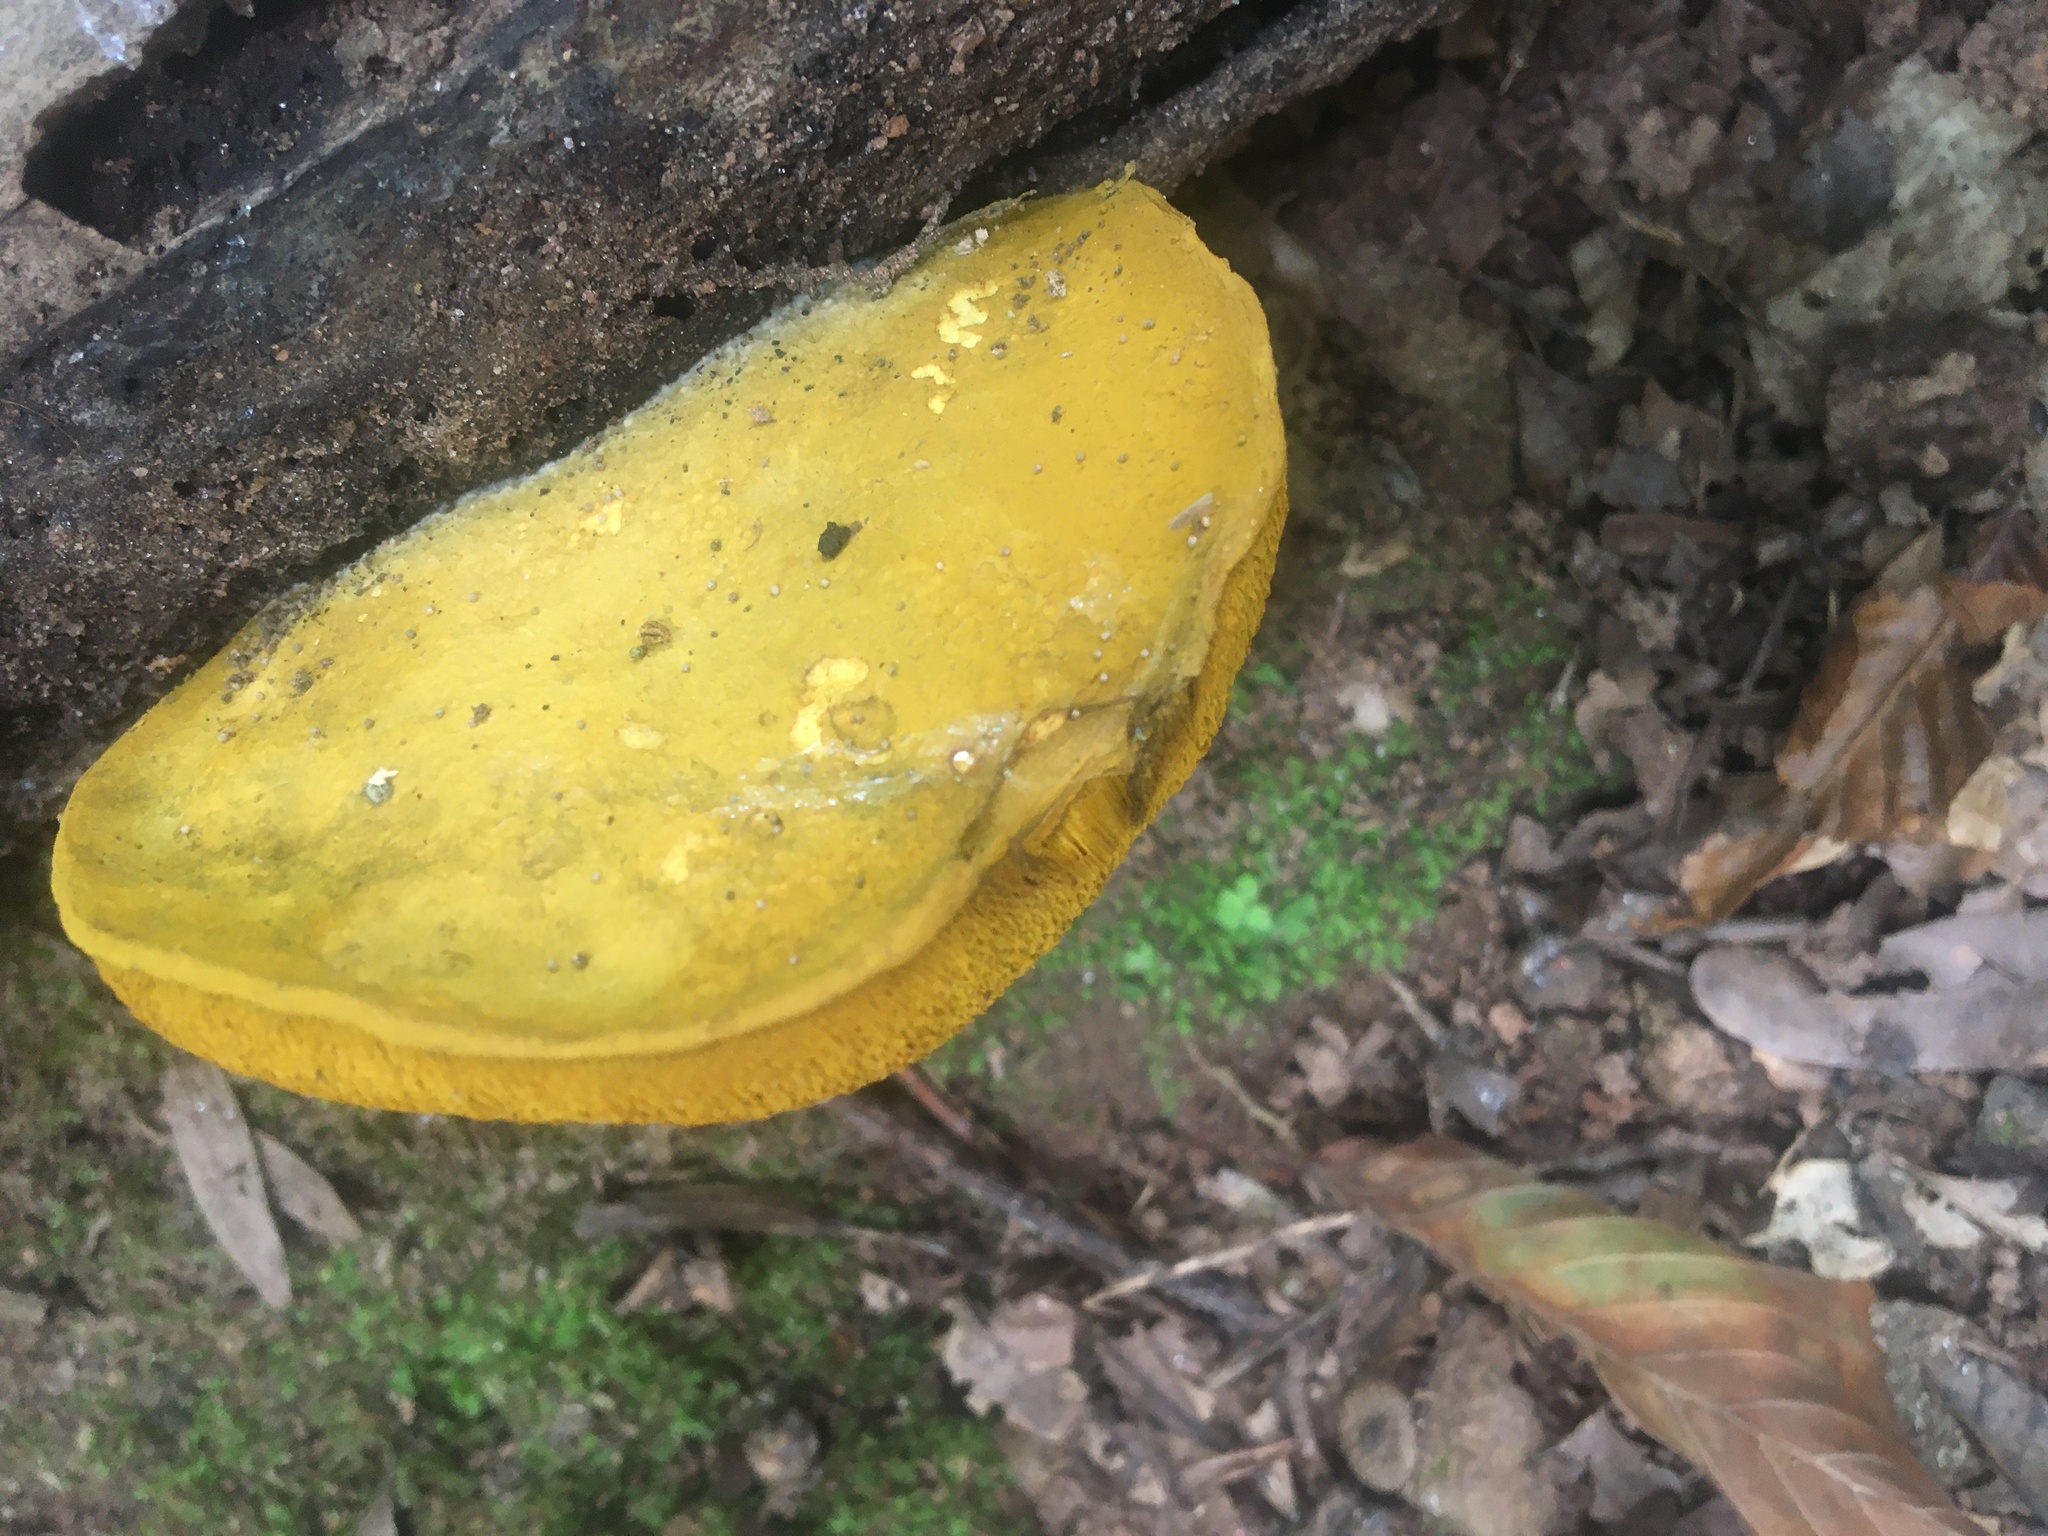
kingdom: Fungi
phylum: Basidiomycota
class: Agaricomycetes
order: Boletales
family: Boletaceae
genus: Retiboletus
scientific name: Retiboletus ornatipes
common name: Ornate-stalked bolete
